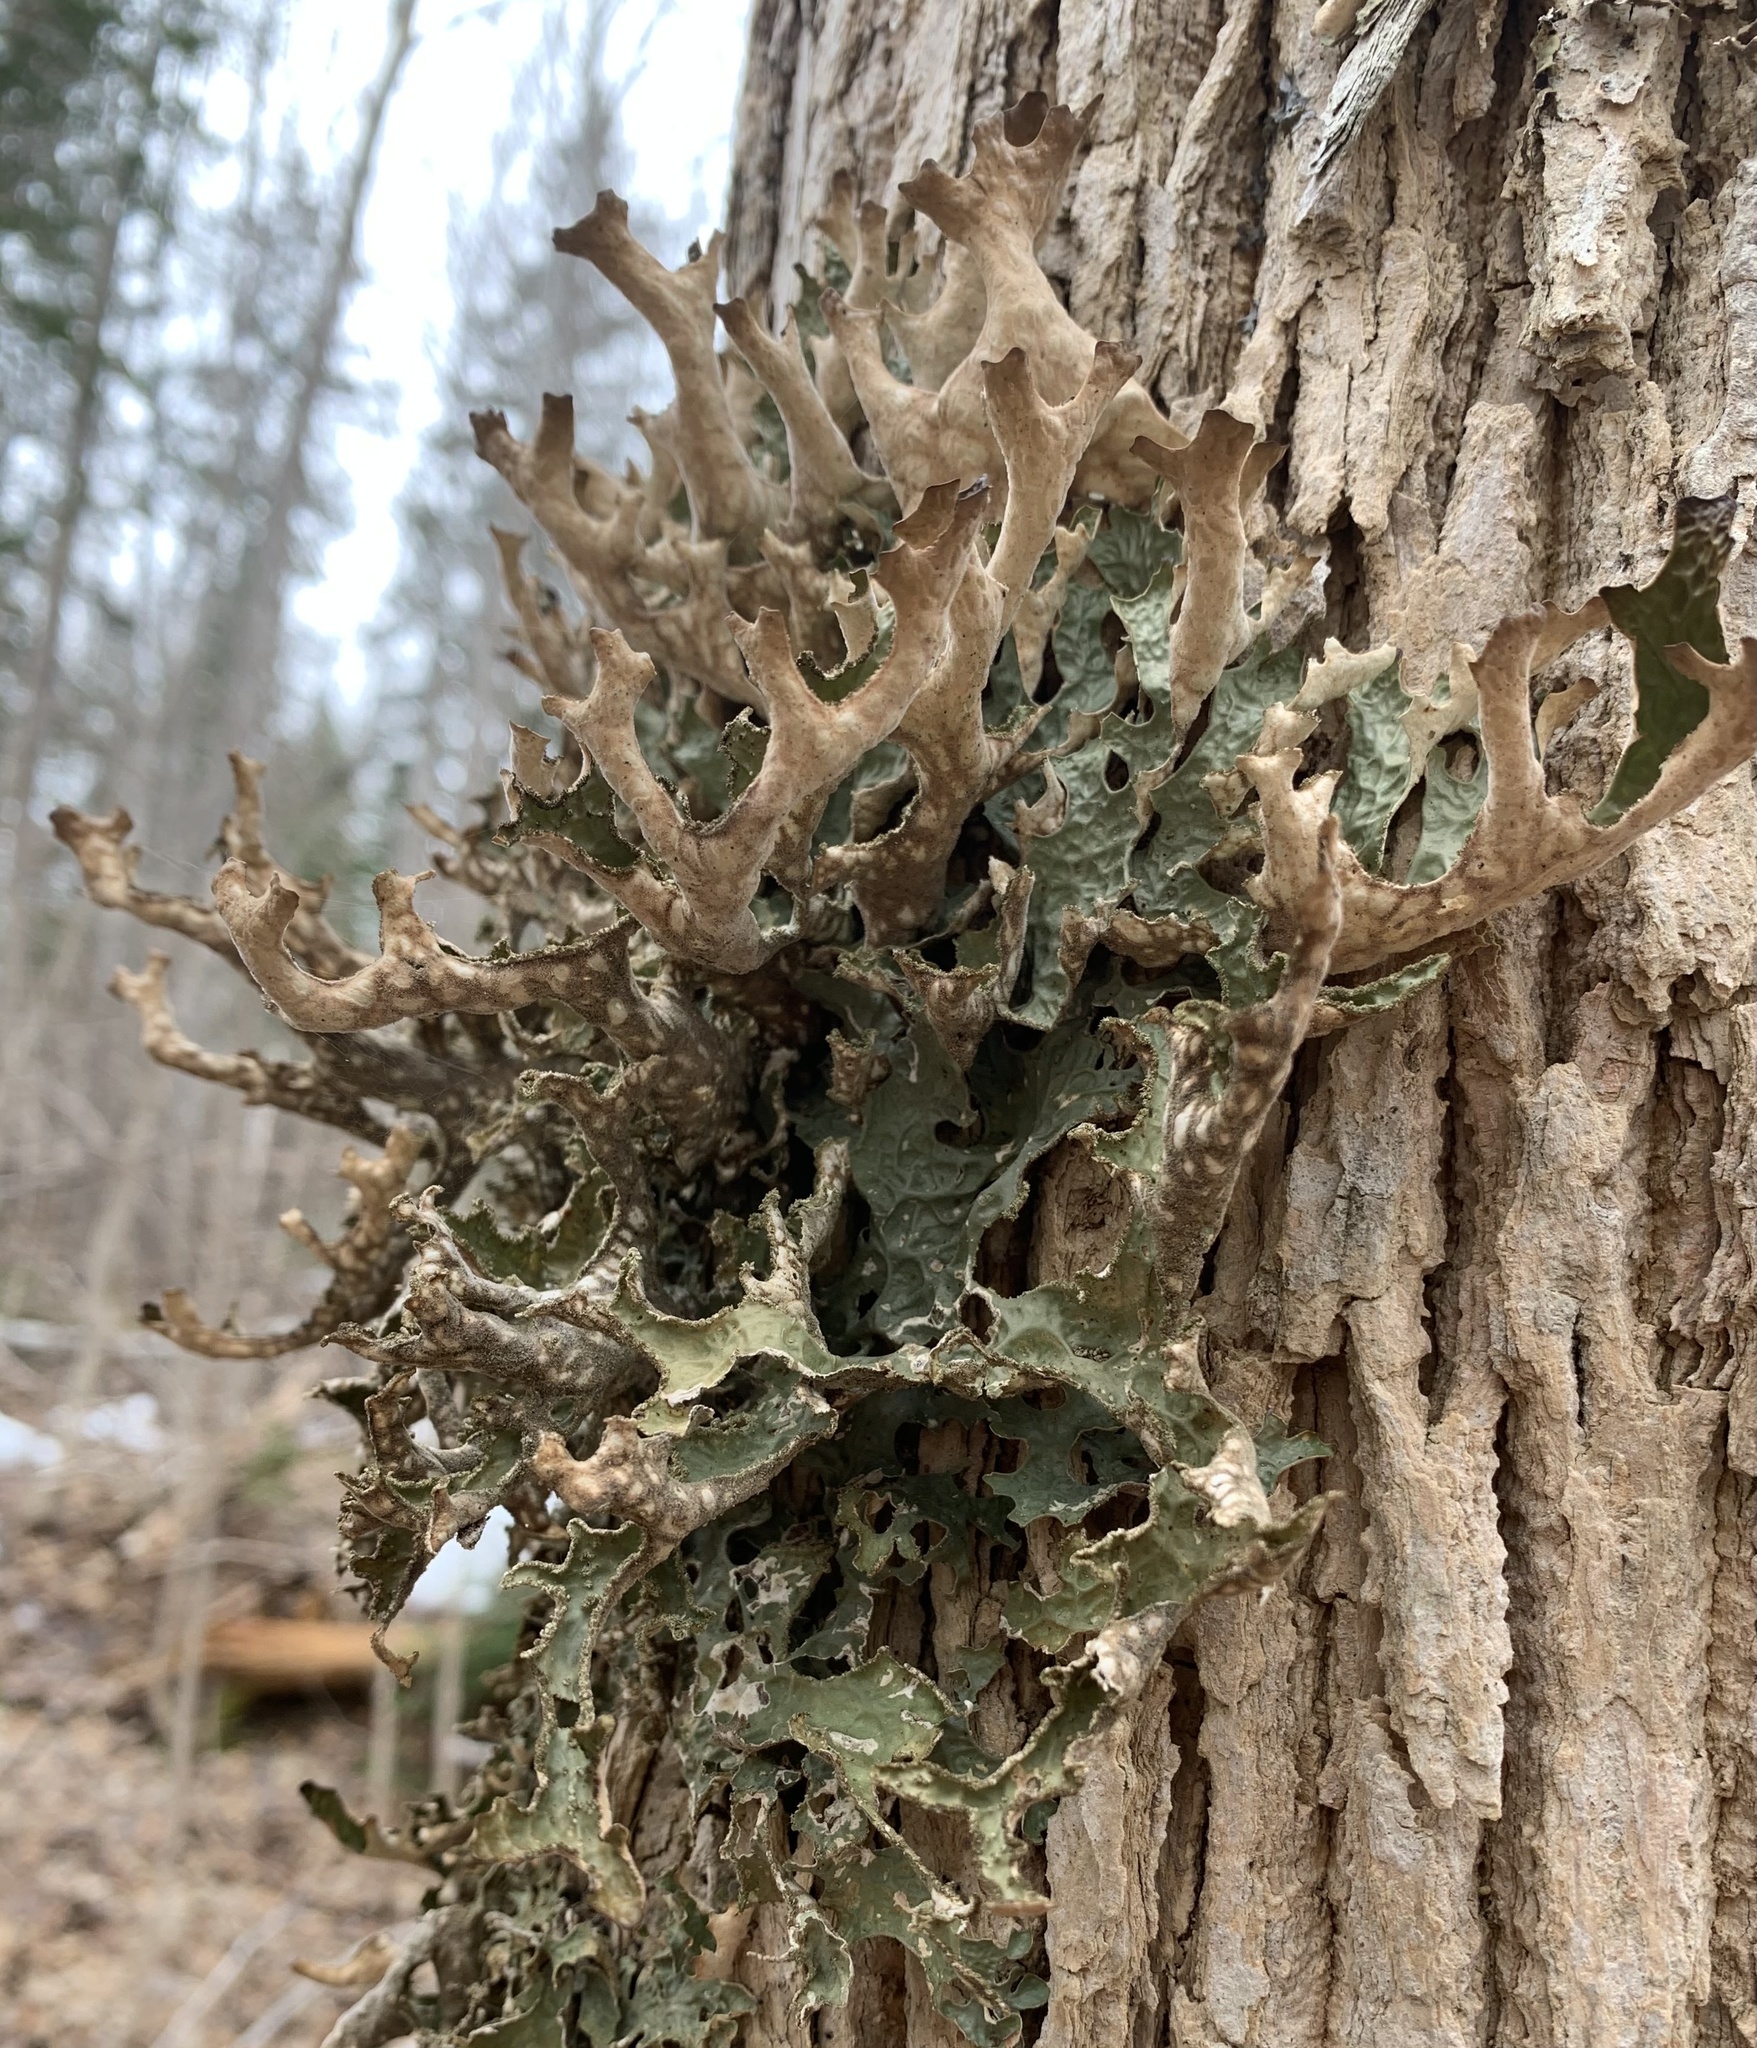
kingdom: Fungi
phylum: Ascomycota
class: Lecanoromycetes
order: Peltigerales
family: Lobariaceae
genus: Lobaria
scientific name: Lobaria pulmonaria
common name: Lungwort
